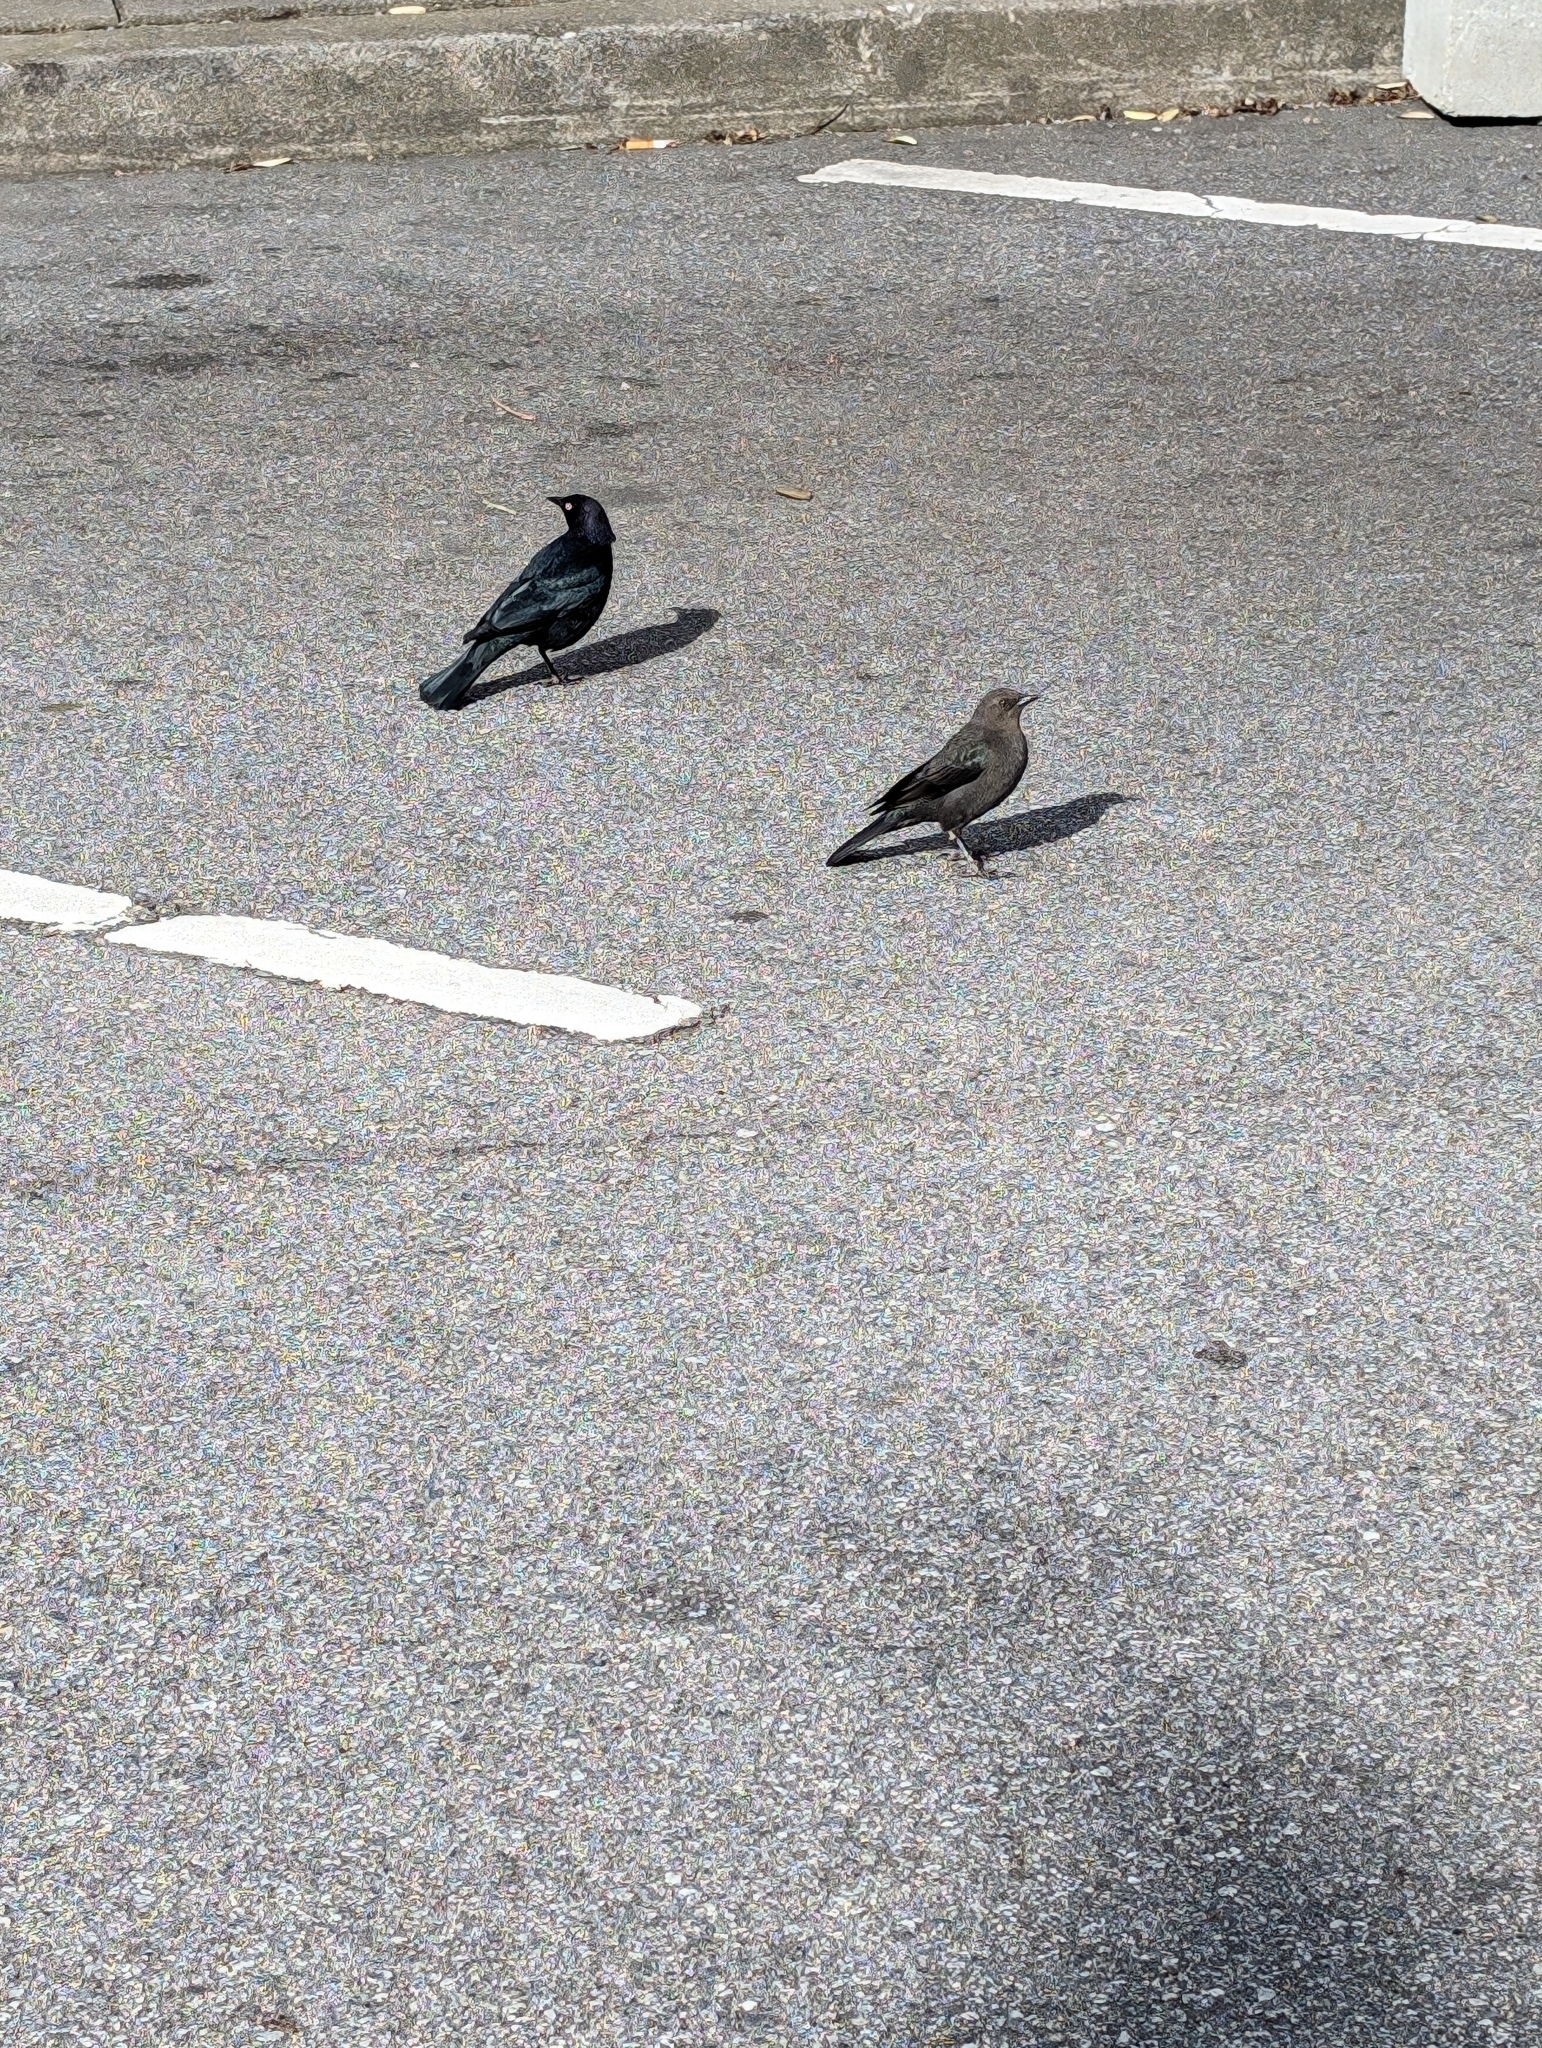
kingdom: Animalia
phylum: Chordata
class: Aves
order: Passeriformes
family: Icteridae
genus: Euphagus
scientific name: Euphagus cyanocephalus
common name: Brewer's blackbird
